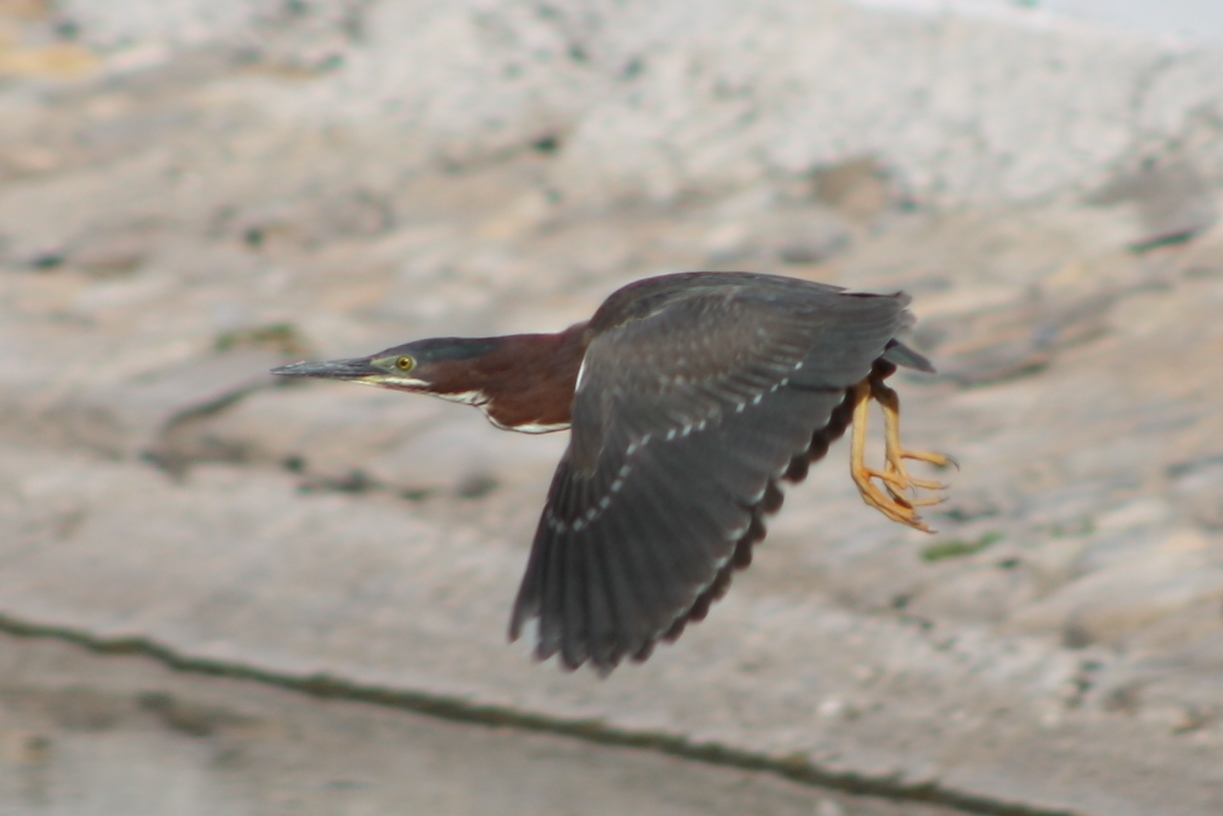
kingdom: Animalia
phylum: Chordata
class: Aves
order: Pelecaniformes
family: Ardeidae
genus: Butorides
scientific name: Butorides virescens
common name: Green heron
